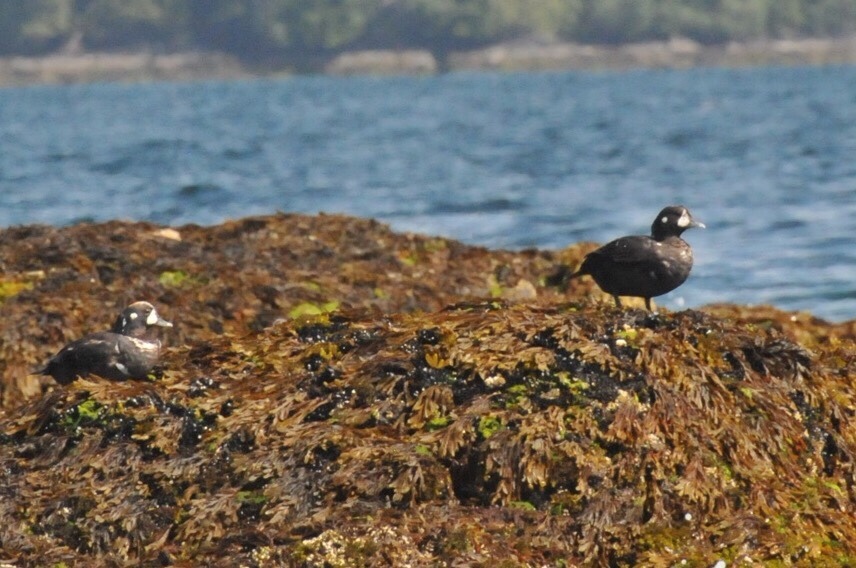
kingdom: Animalia
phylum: Chordata
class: Aves
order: Anseriformes
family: Anatidae
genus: Histrionicus
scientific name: Histrionicus histrionicus
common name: Harlequin duck
